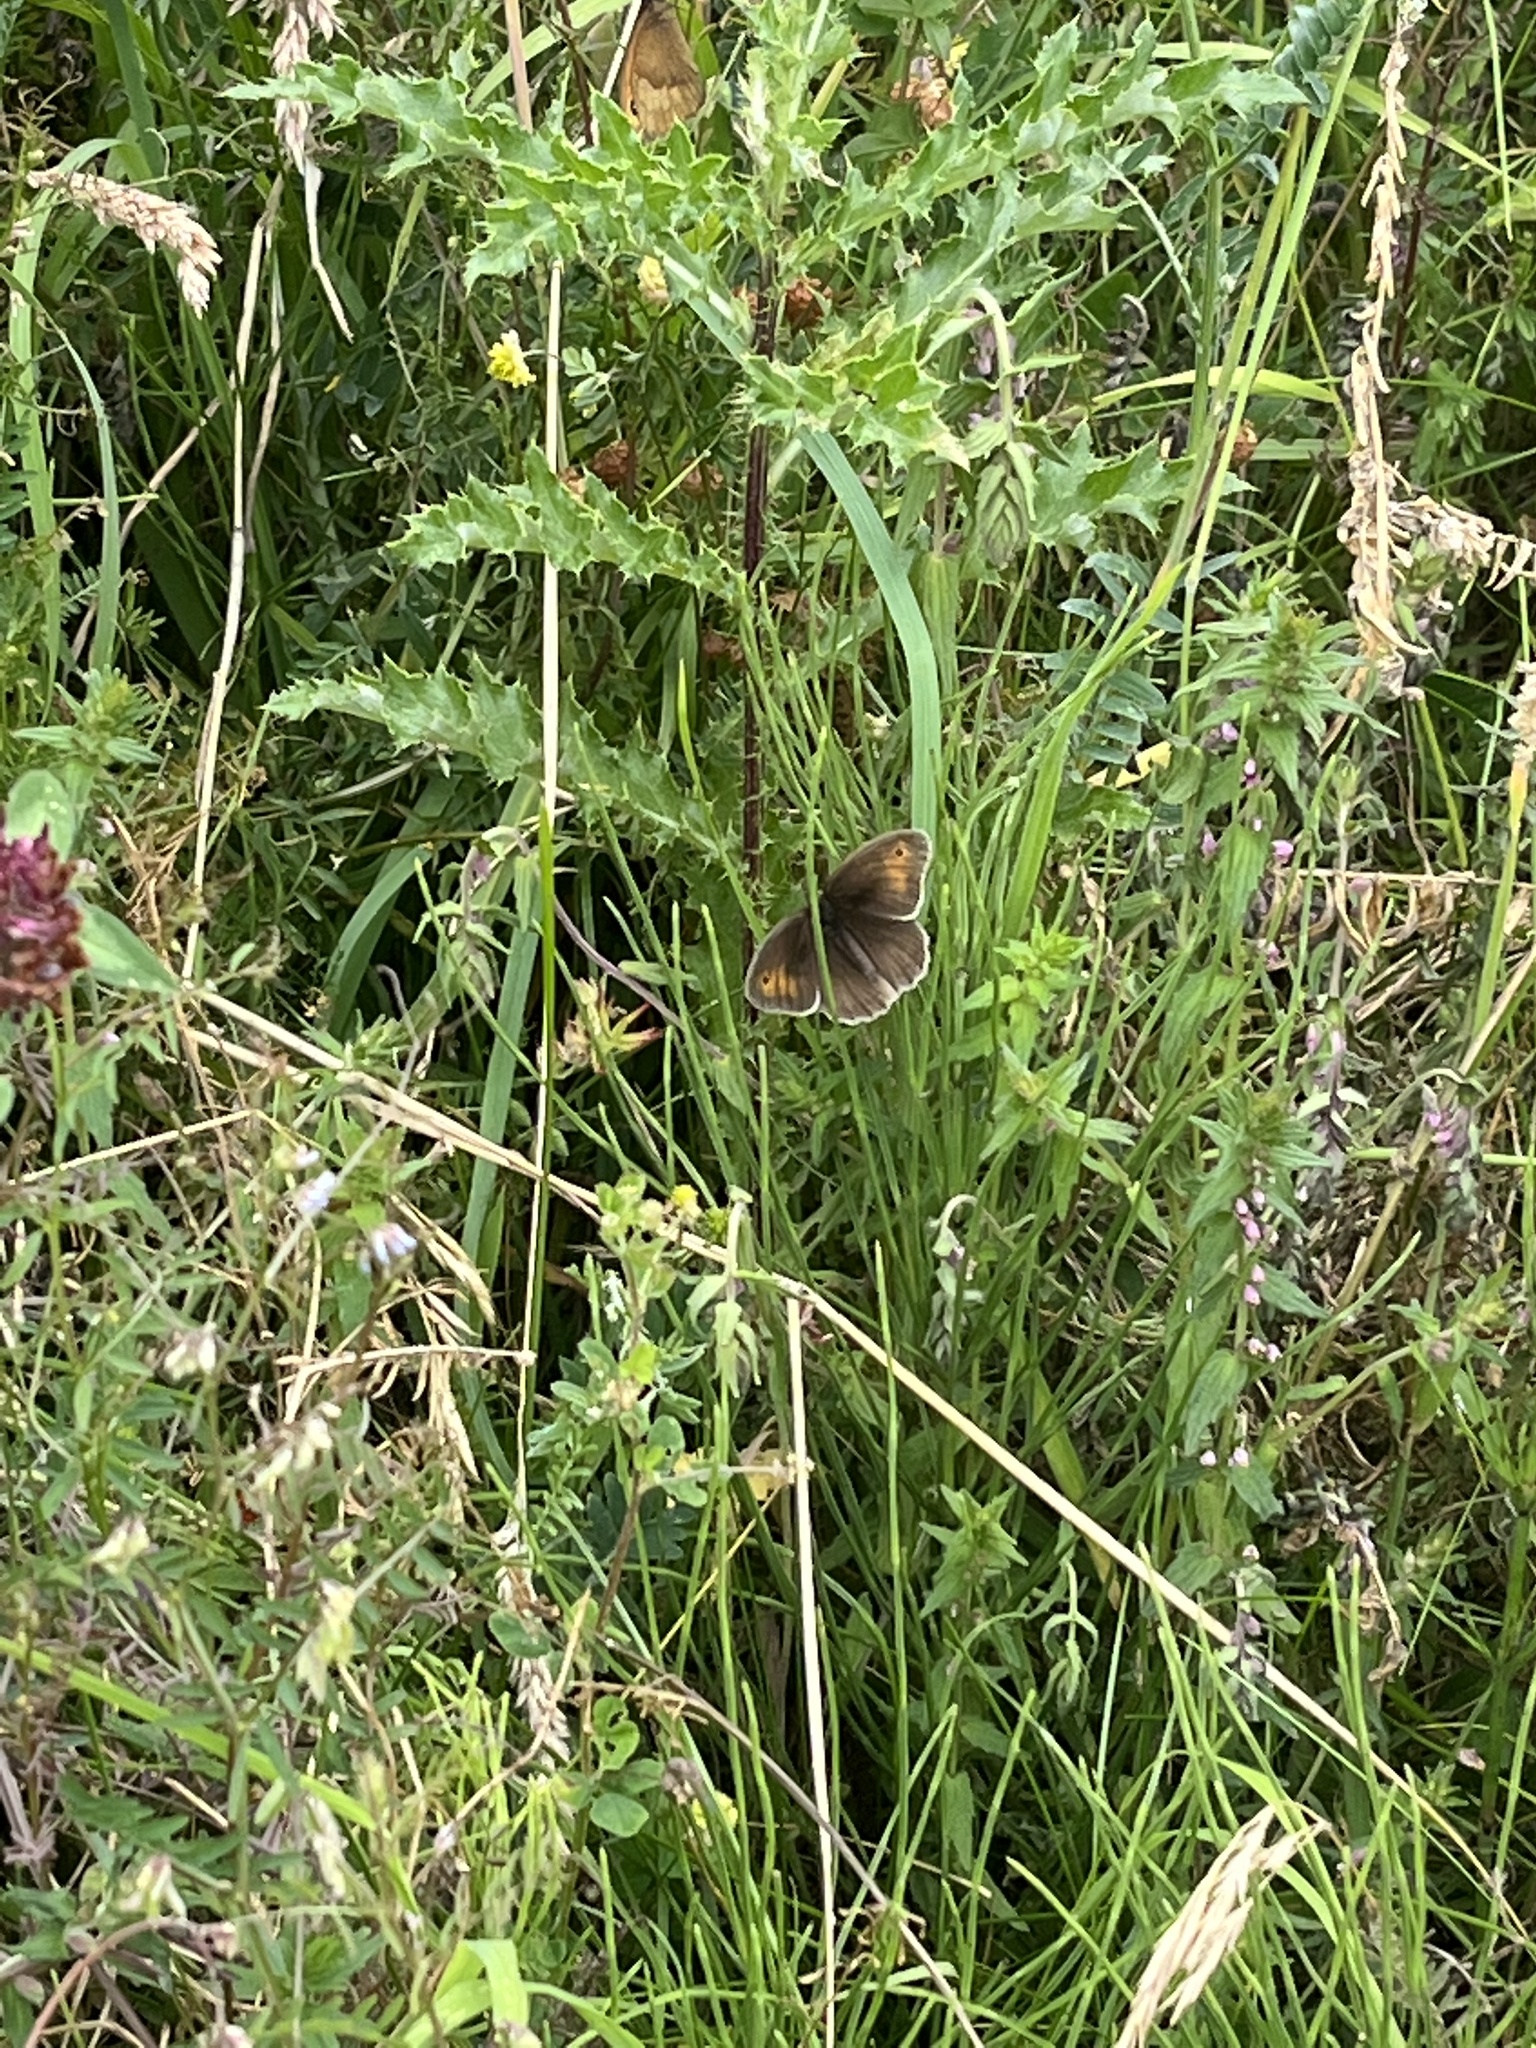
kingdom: Animalia
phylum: Arthropoda
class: Insecta
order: Lepidoptera
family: Nymphalidae
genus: Maniola
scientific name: Maniola jurtina
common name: Meadow brown
